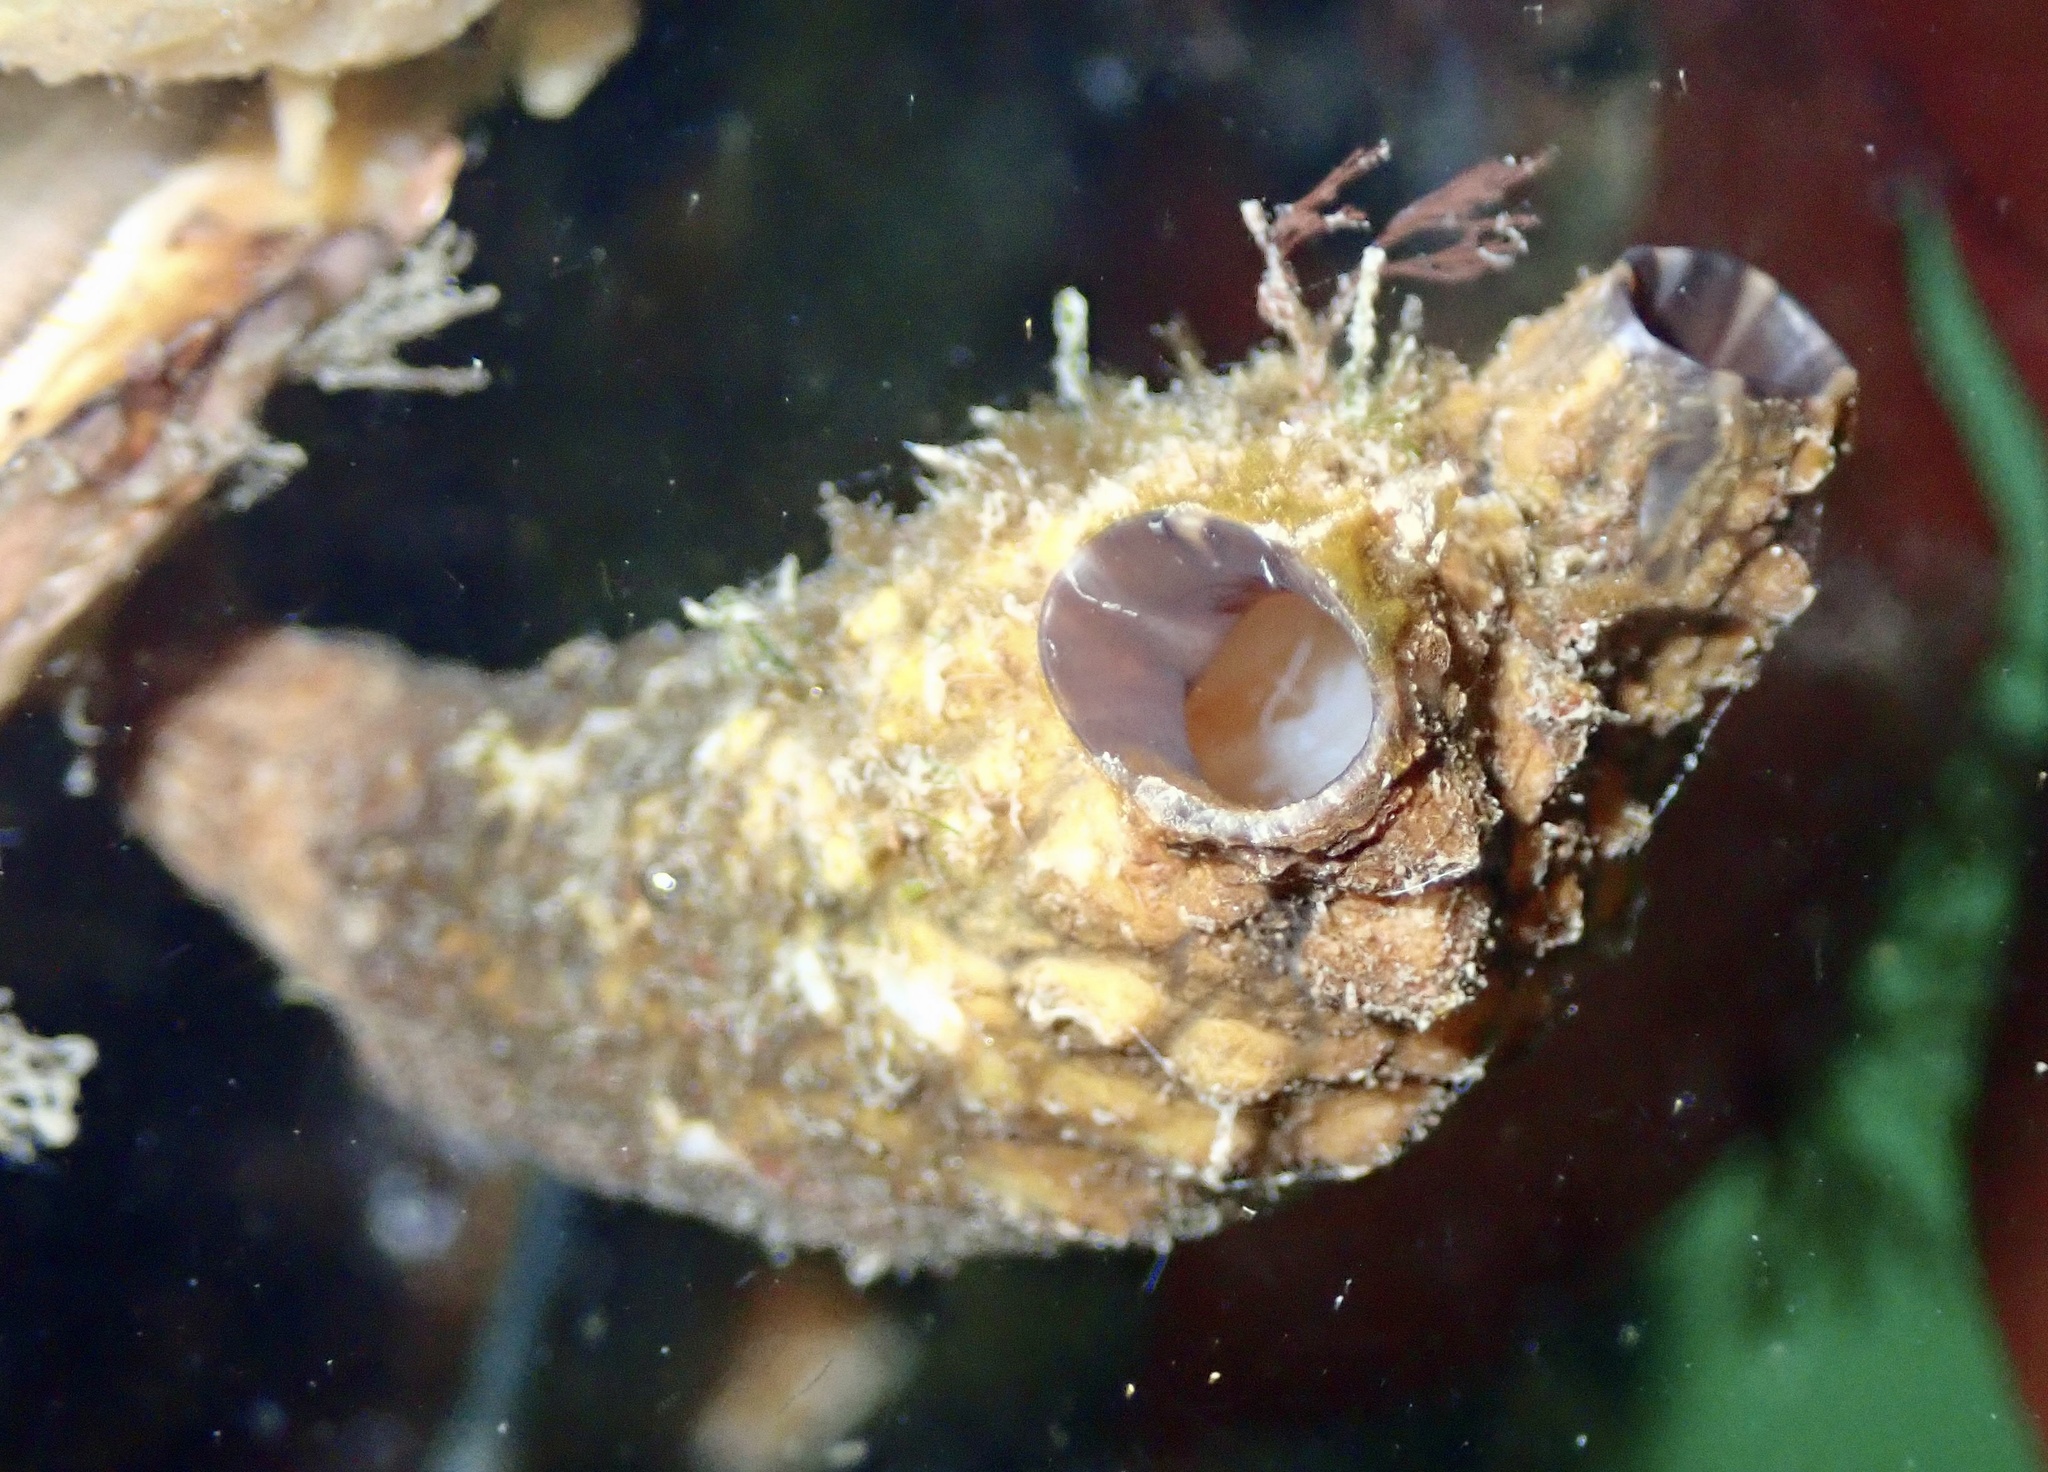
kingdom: Animalia
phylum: Chordata
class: Ascidiacea
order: Stolidobranchia
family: Styelidae
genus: Styela
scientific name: Styela clava
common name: Leathery sea squirt
